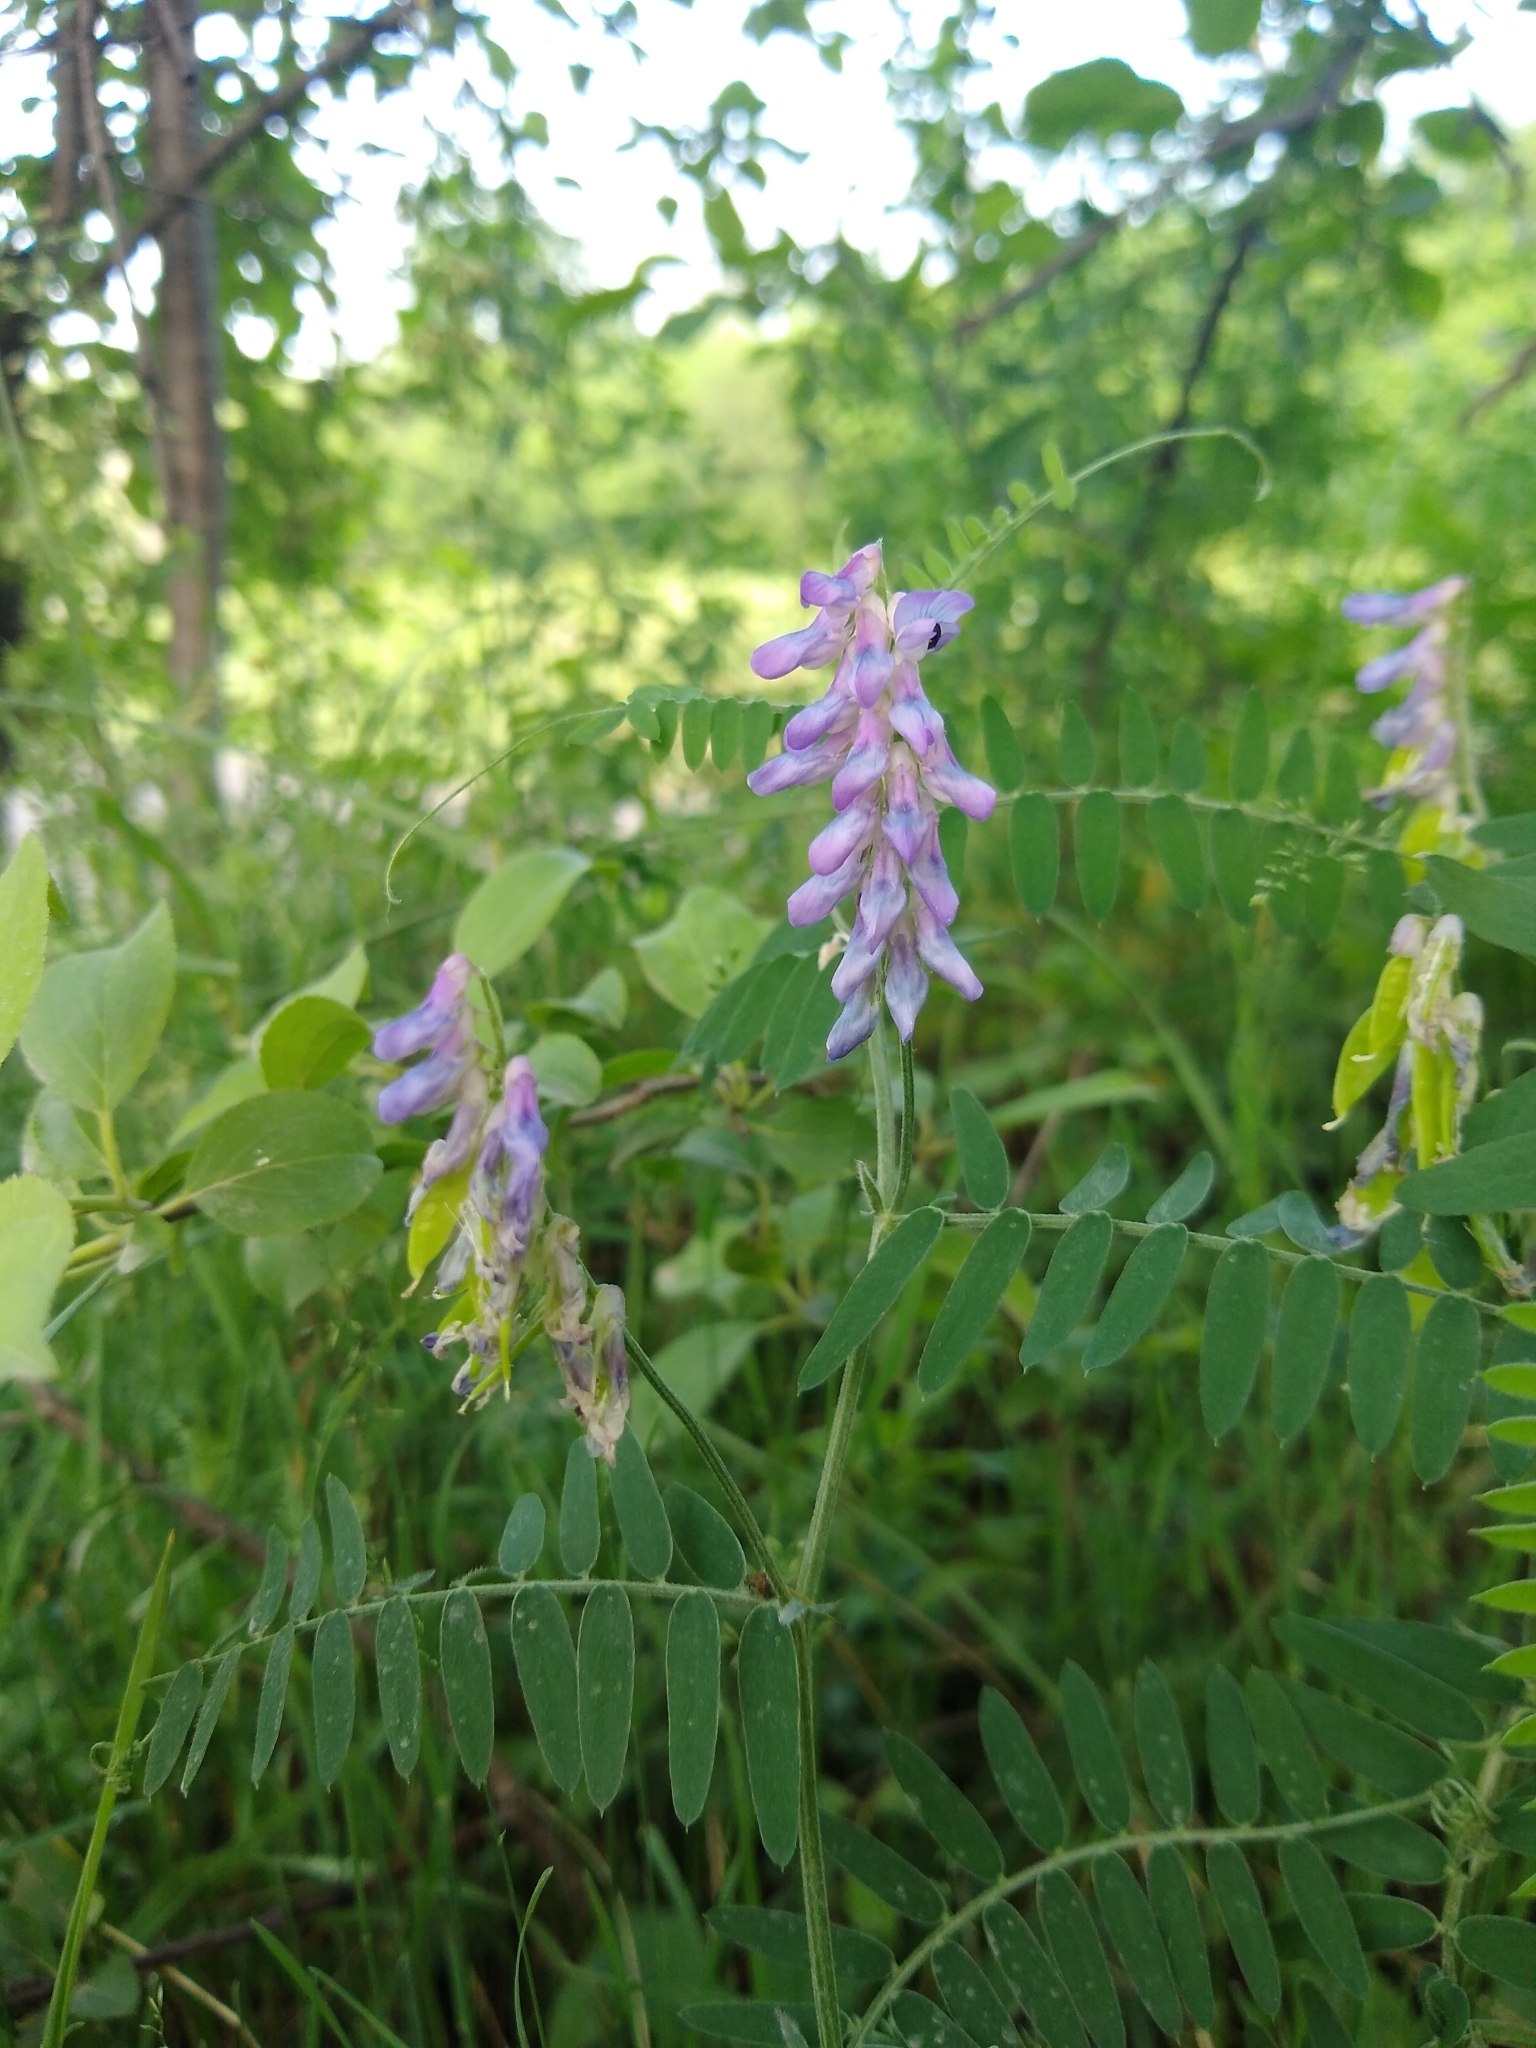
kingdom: Plantae
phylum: Tracheophyta
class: Magnoliopsida
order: Fabales
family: Fabaceae
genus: Vicia
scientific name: Vicia cracca
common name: Bird vetch
